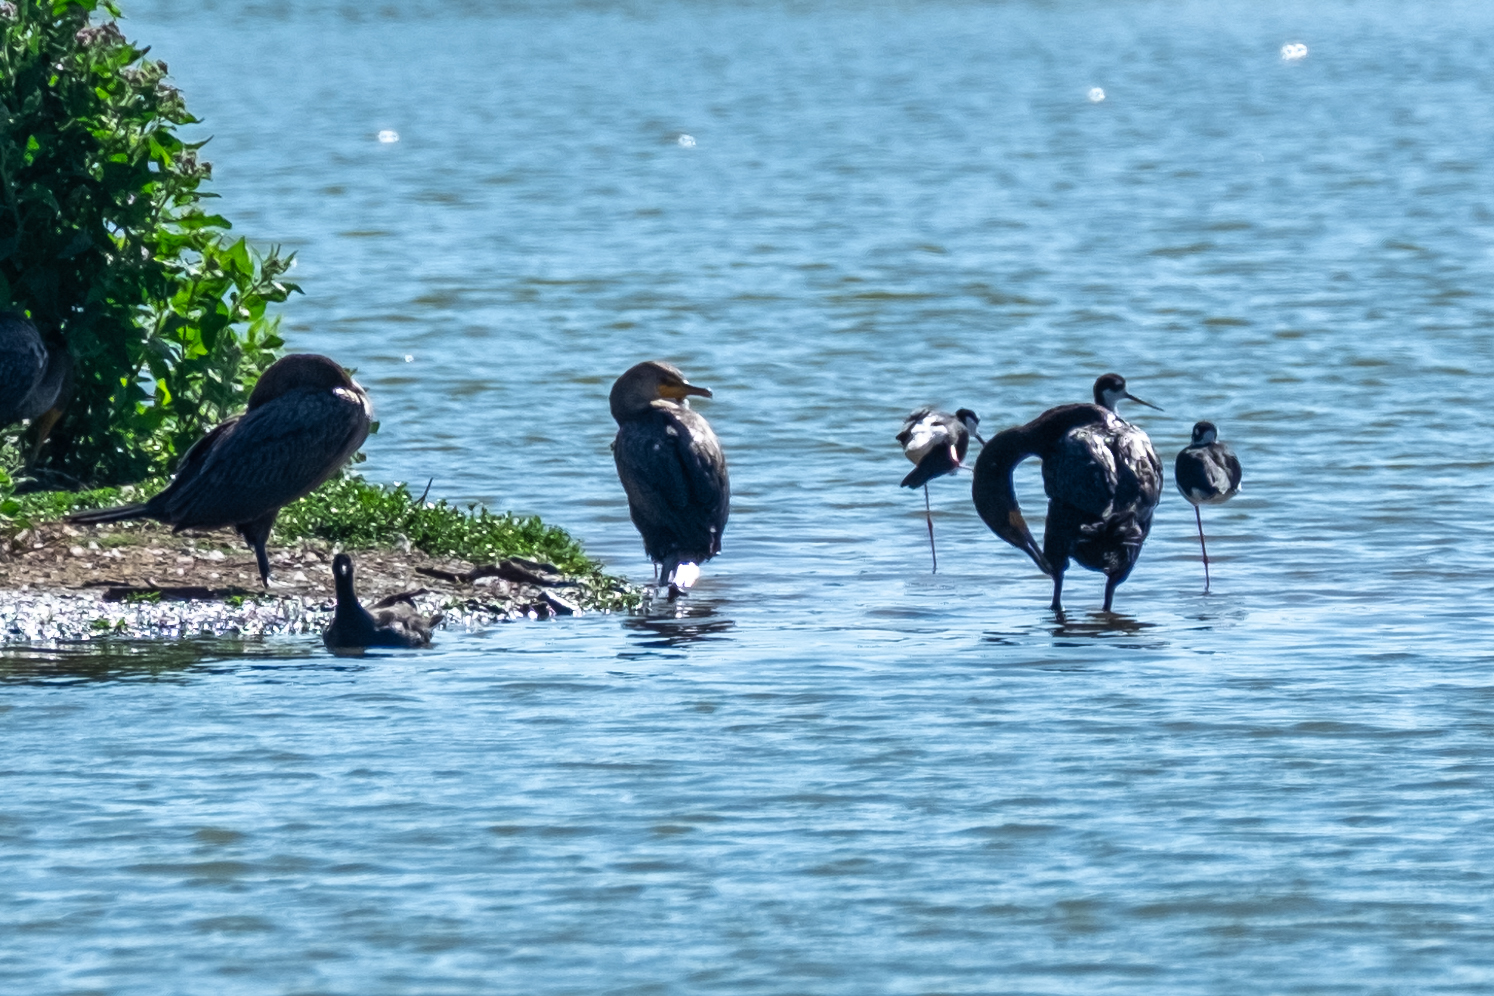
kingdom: Animalia
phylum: Chordata
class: Aves
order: Suliformes
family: Phalacrocoracidae
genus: Phalacrocorax
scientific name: Phalacrocorax auritus
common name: Double-crested cormorant
